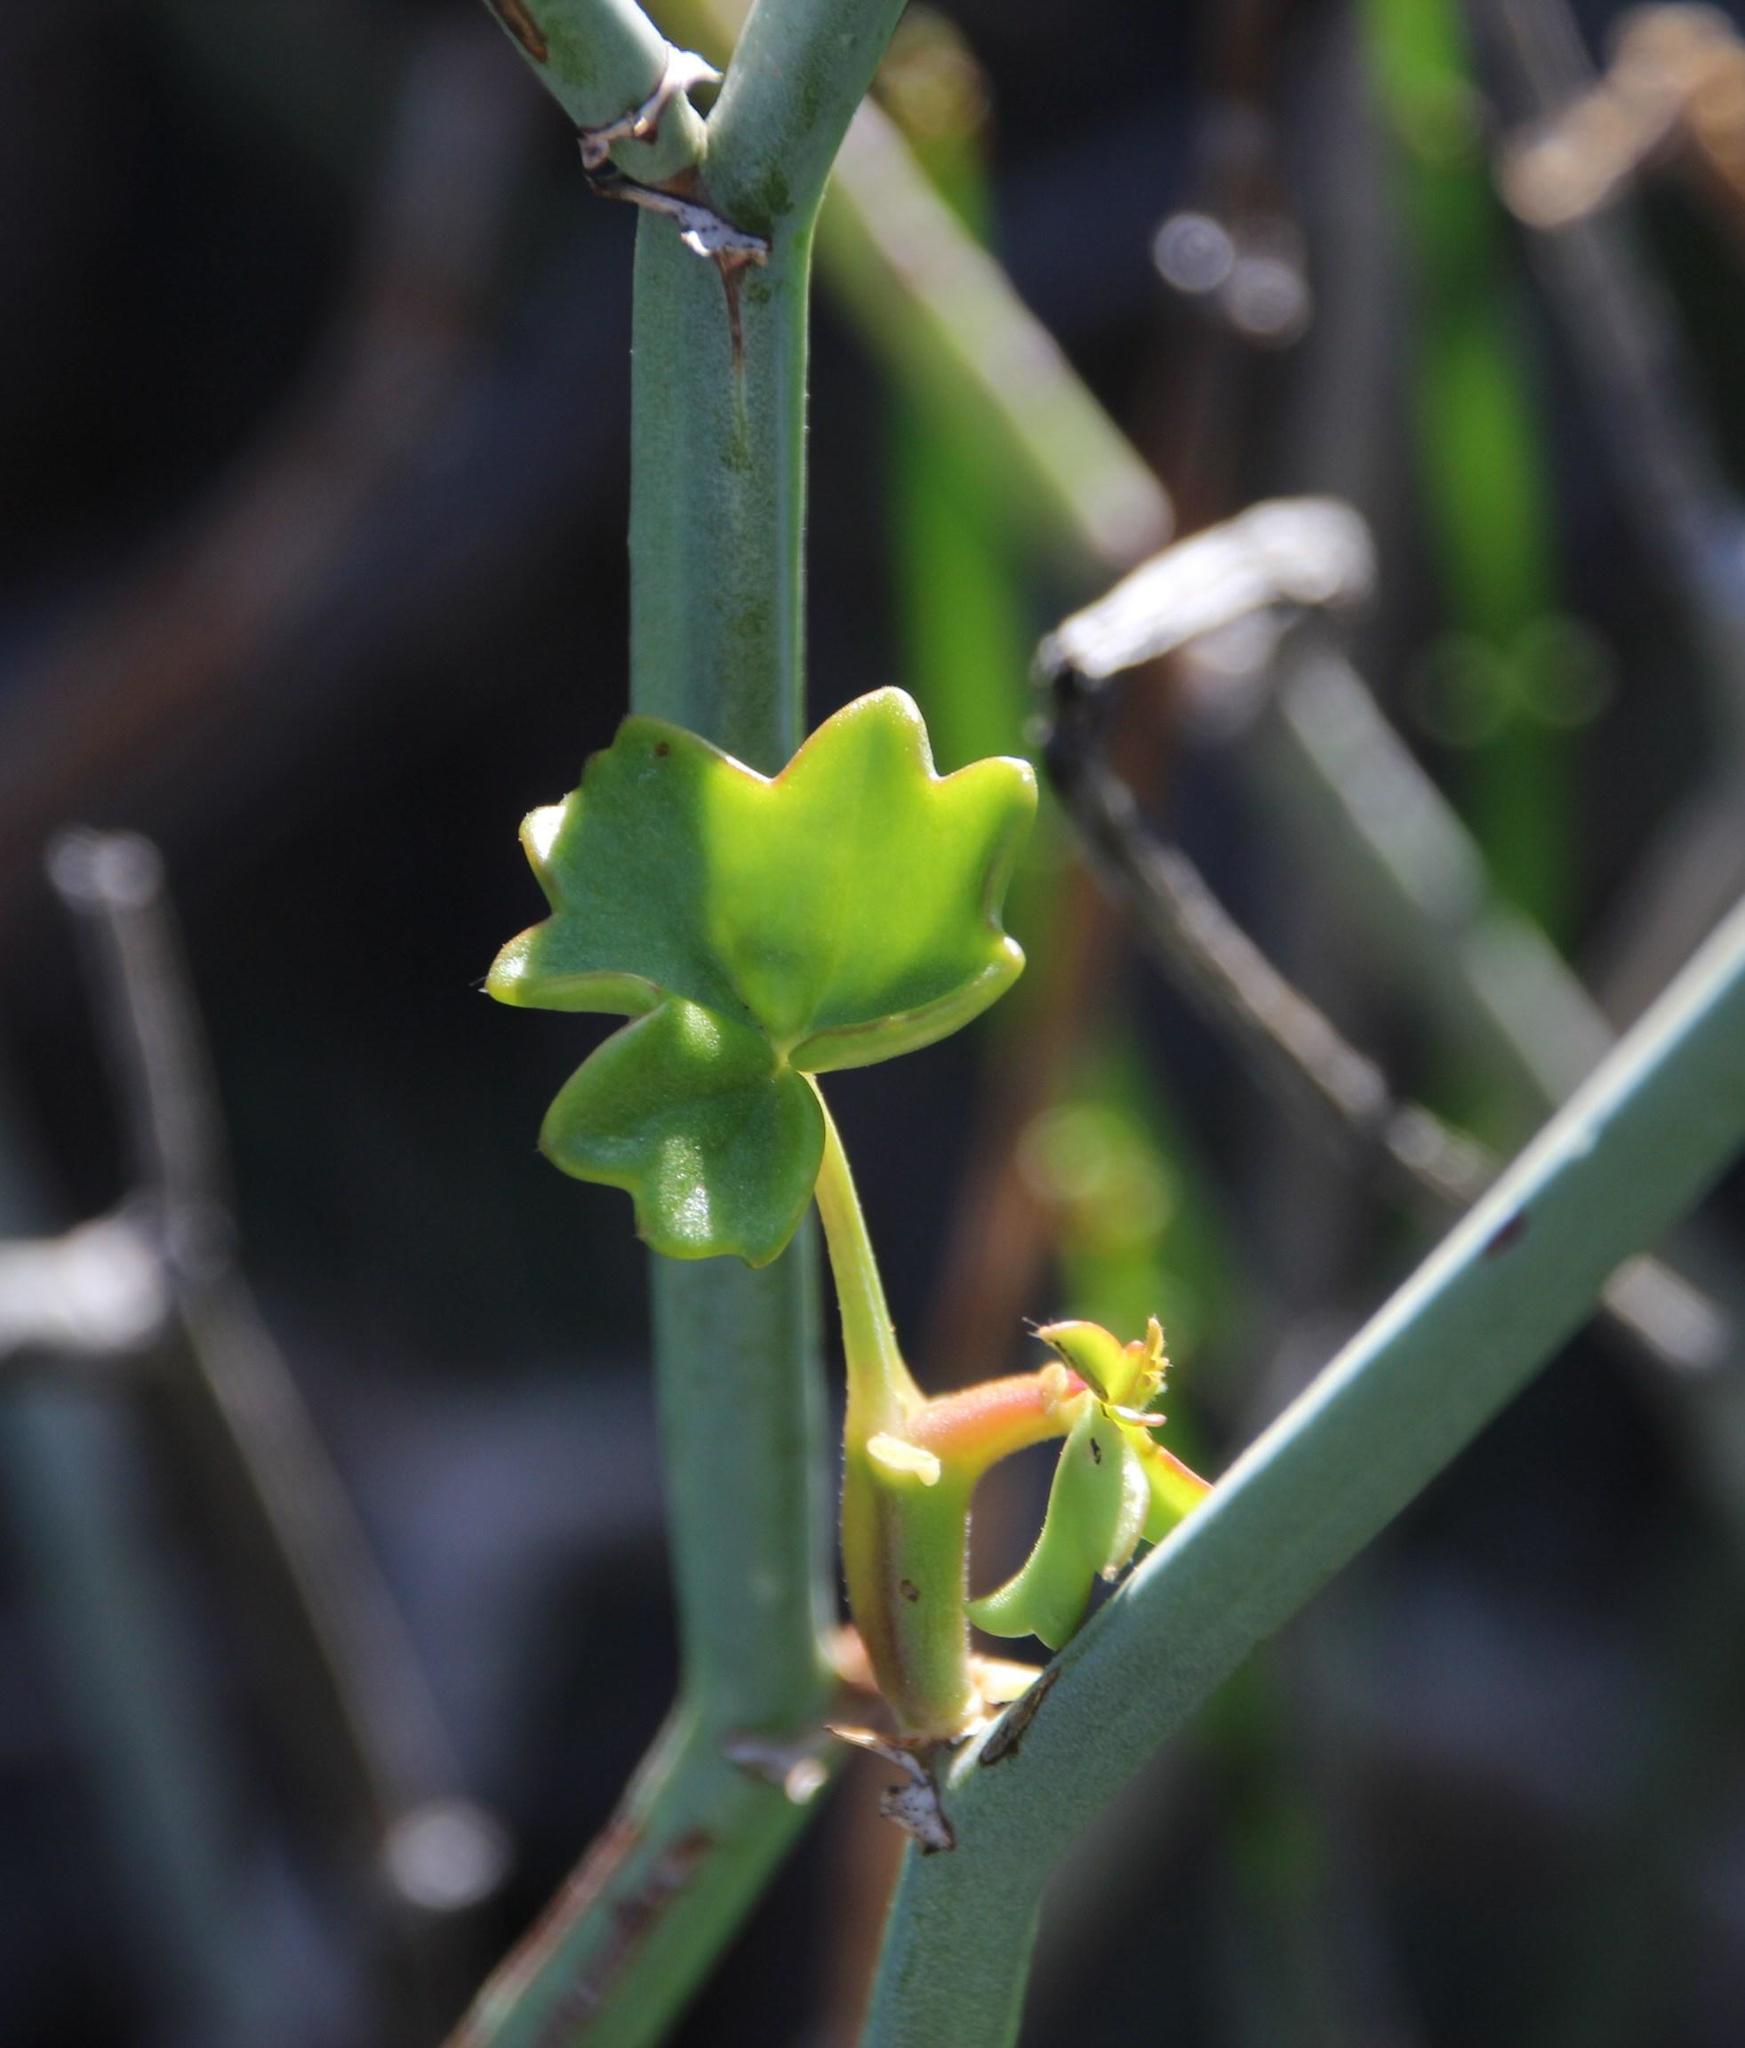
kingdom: Plantae
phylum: Tracheophyta
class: Magnoliopsida
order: Geraniales
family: Geraniaceae
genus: Pelargonium
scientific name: Pelargonium tetragonum
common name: Square-stack crane's-bill
